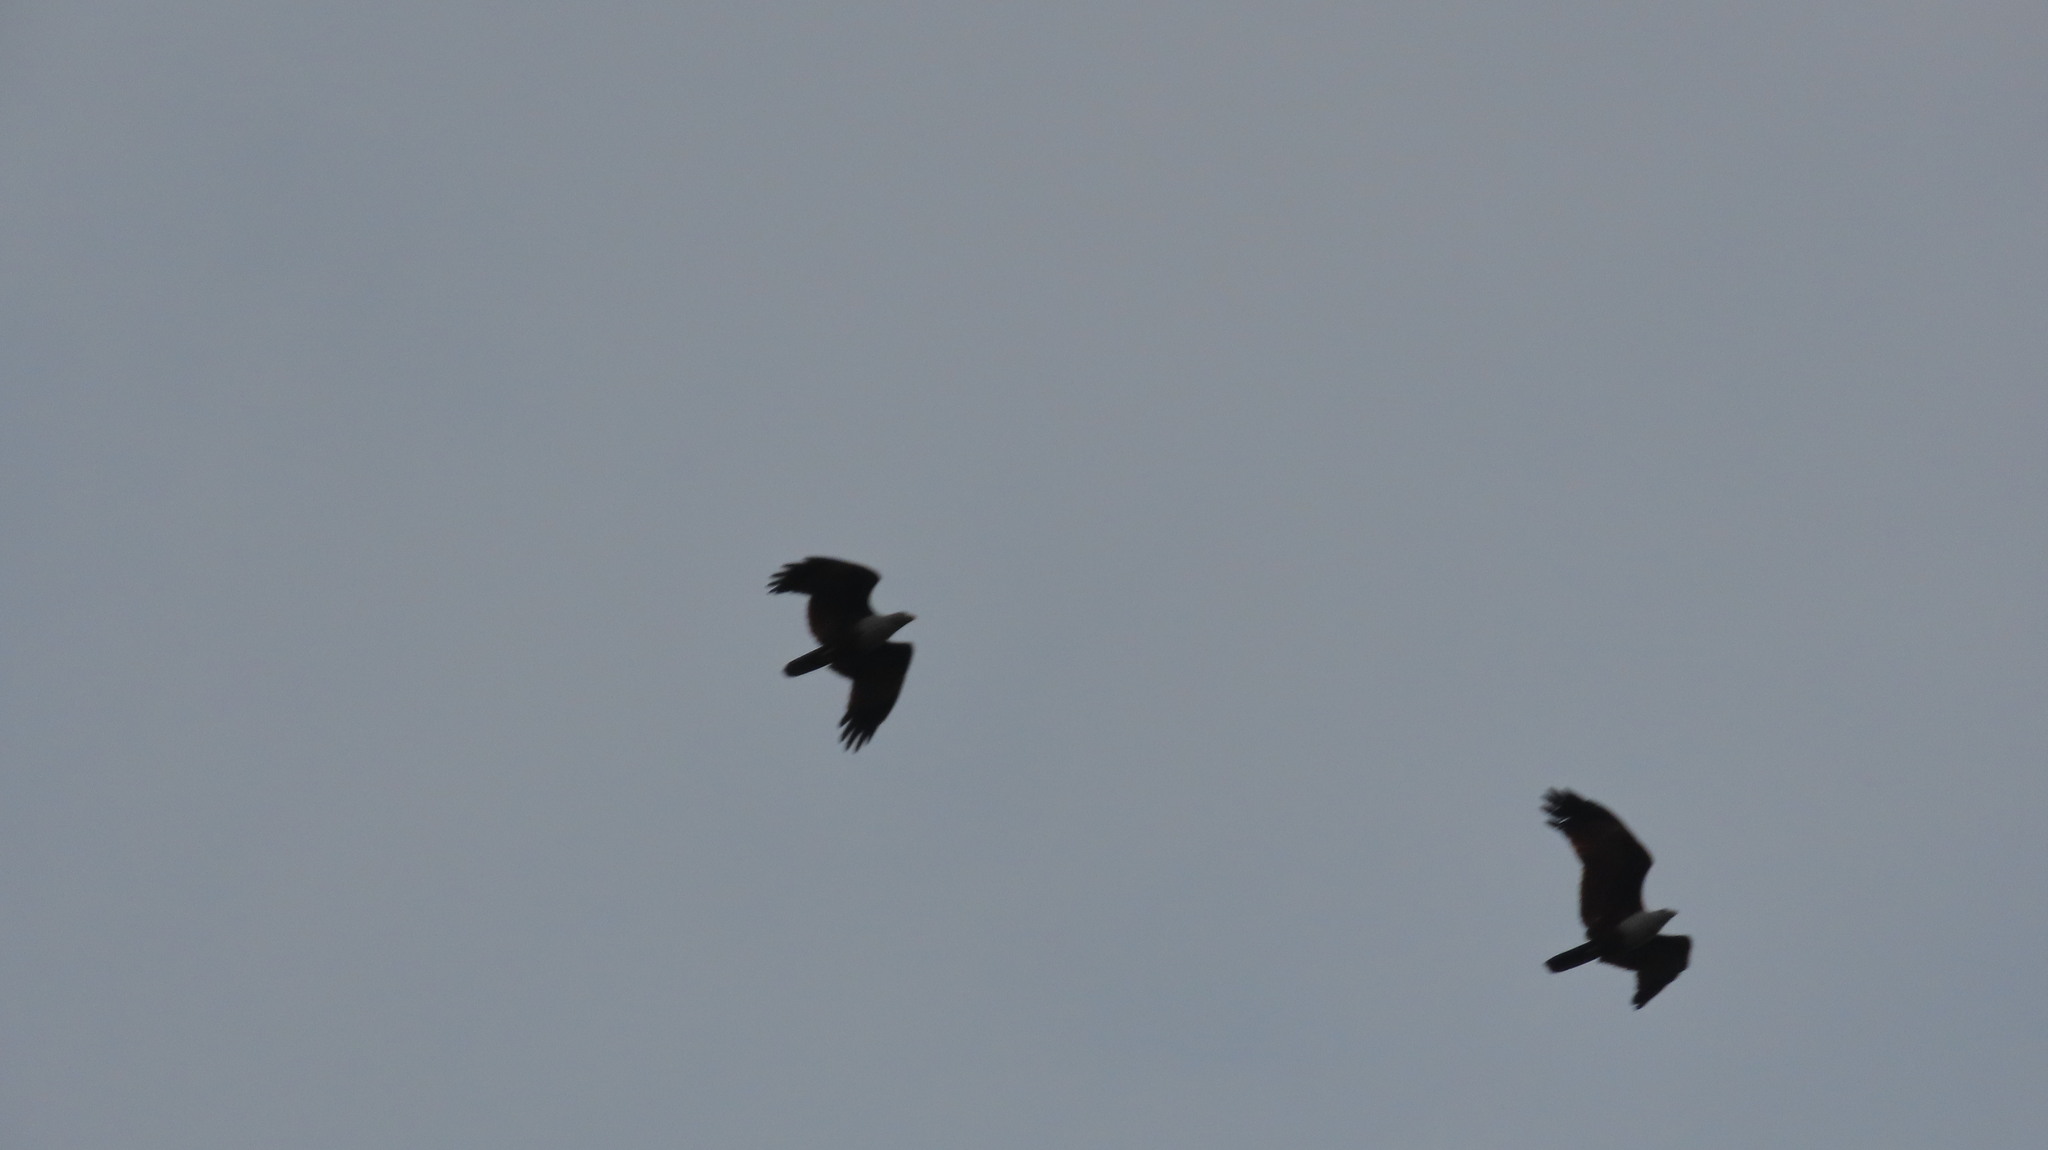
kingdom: Animalia
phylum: Chordata
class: Aves
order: Accipitriformes
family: Accipitridae
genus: Haliastur
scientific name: Haliastur indus
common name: Brahminy kite
